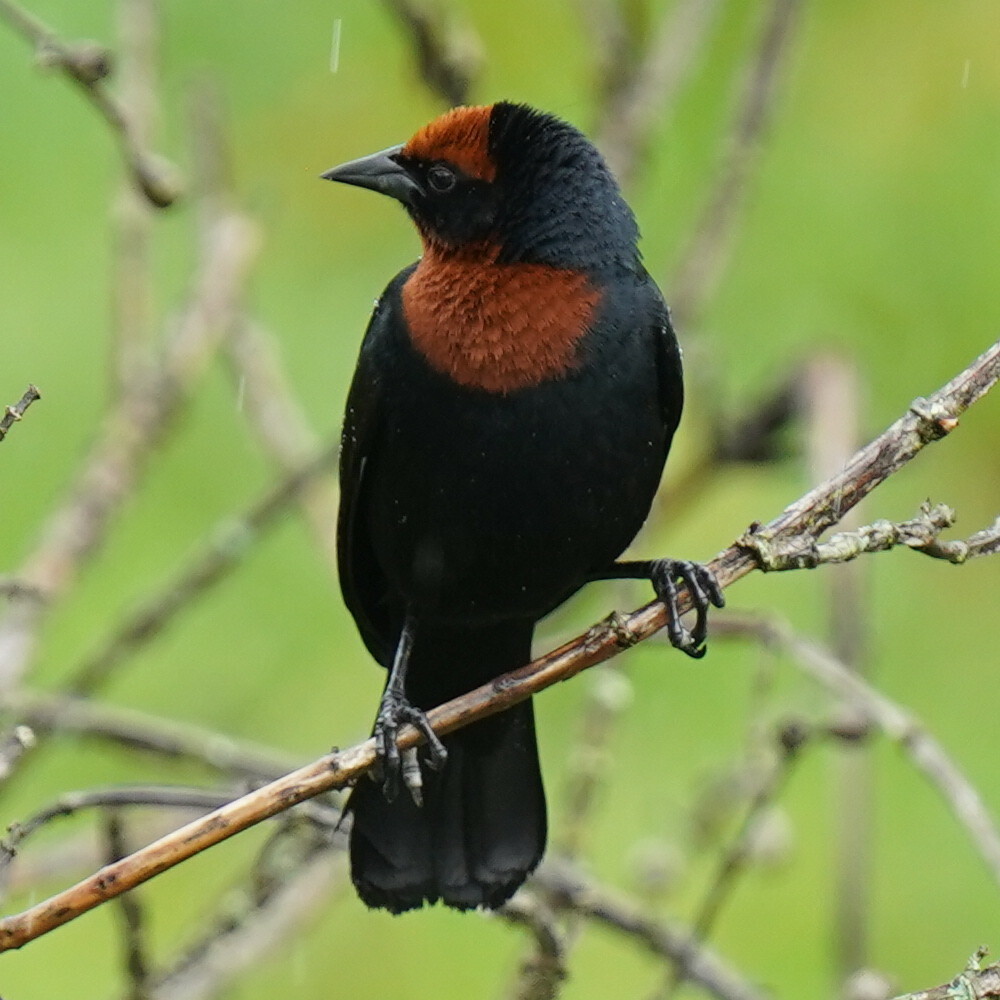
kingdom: Animalia
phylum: Chordata
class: Aves
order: Passeriformes
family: Icteridae
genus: Chrysomus
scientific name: Chrysomus ruficapillus
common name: Chestnut-capped blackbird
